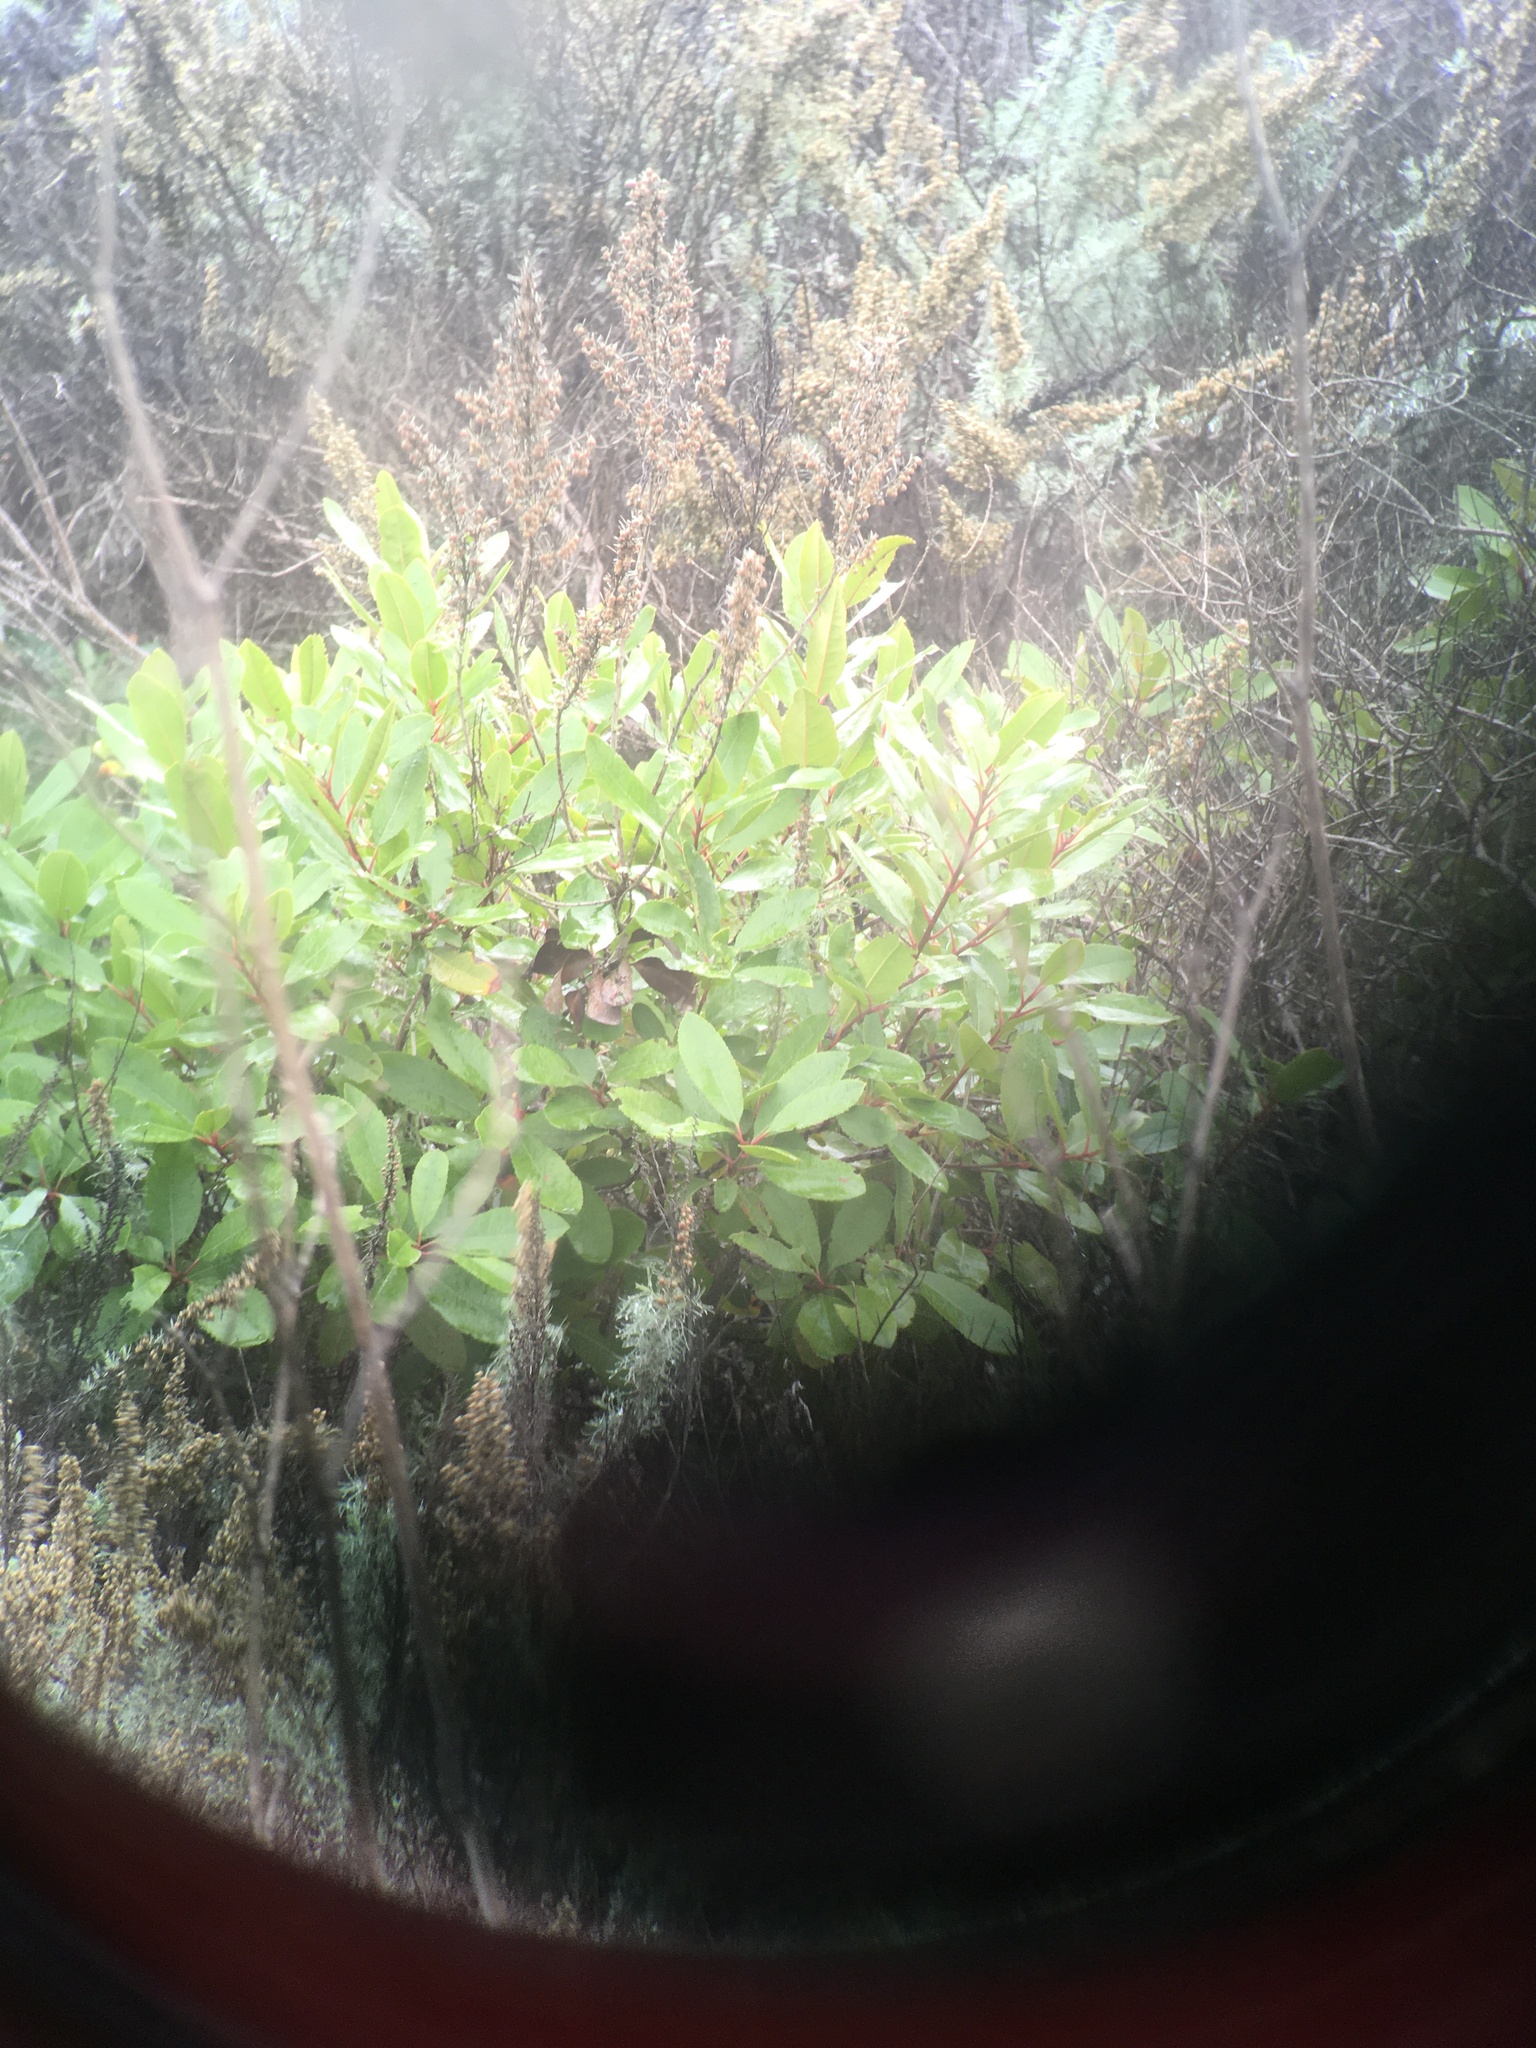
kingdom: Plantae
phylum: Tracheophyta
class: Magnoliopsida
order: Rosales
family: Rosaceae
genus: Heteromeles
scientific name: Heteromeles arbutifolia
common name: California-holly
